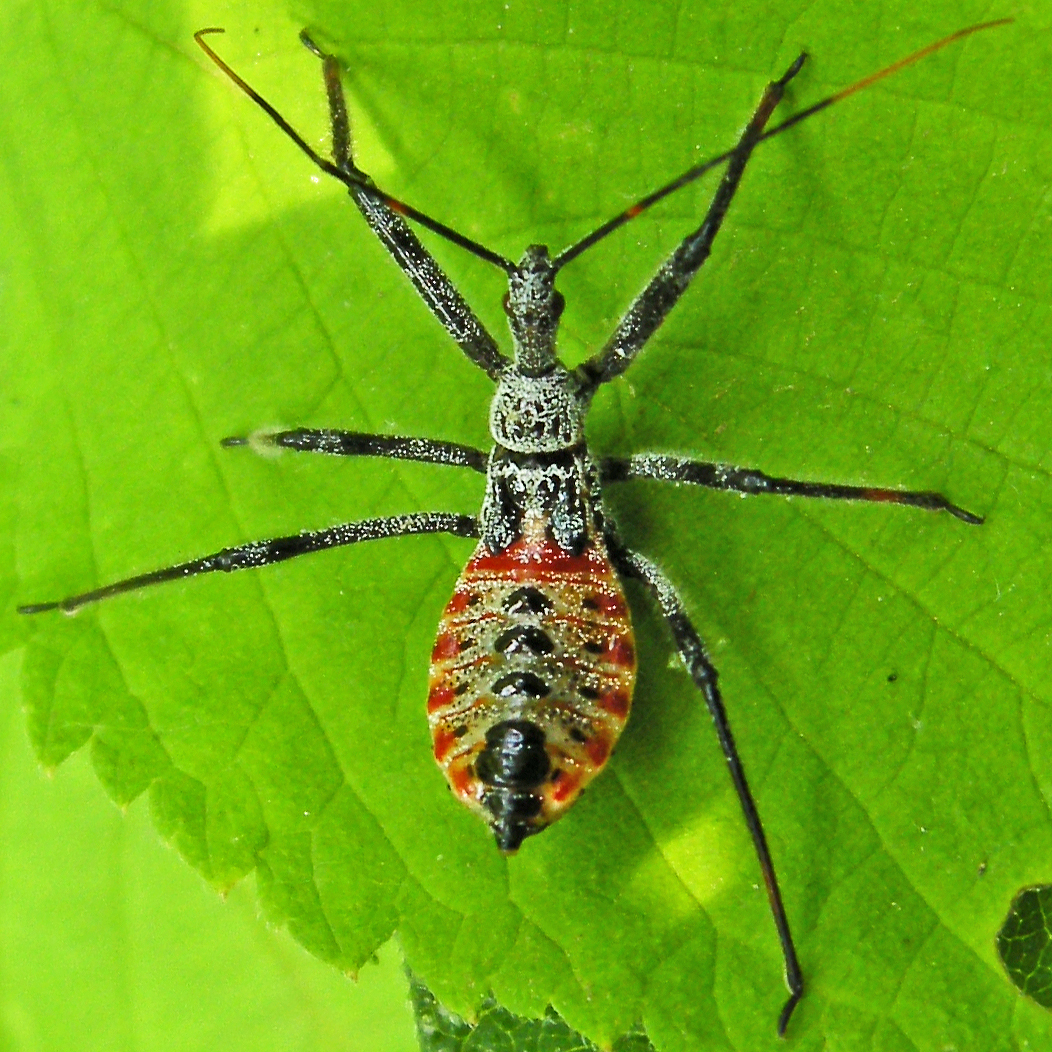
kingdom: Animalia
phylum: Arthropoda
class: Insecta
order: Hemiptera
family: Reduviidae
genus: Arilus
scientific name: Arilus cristatus
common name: North american wheel bug
